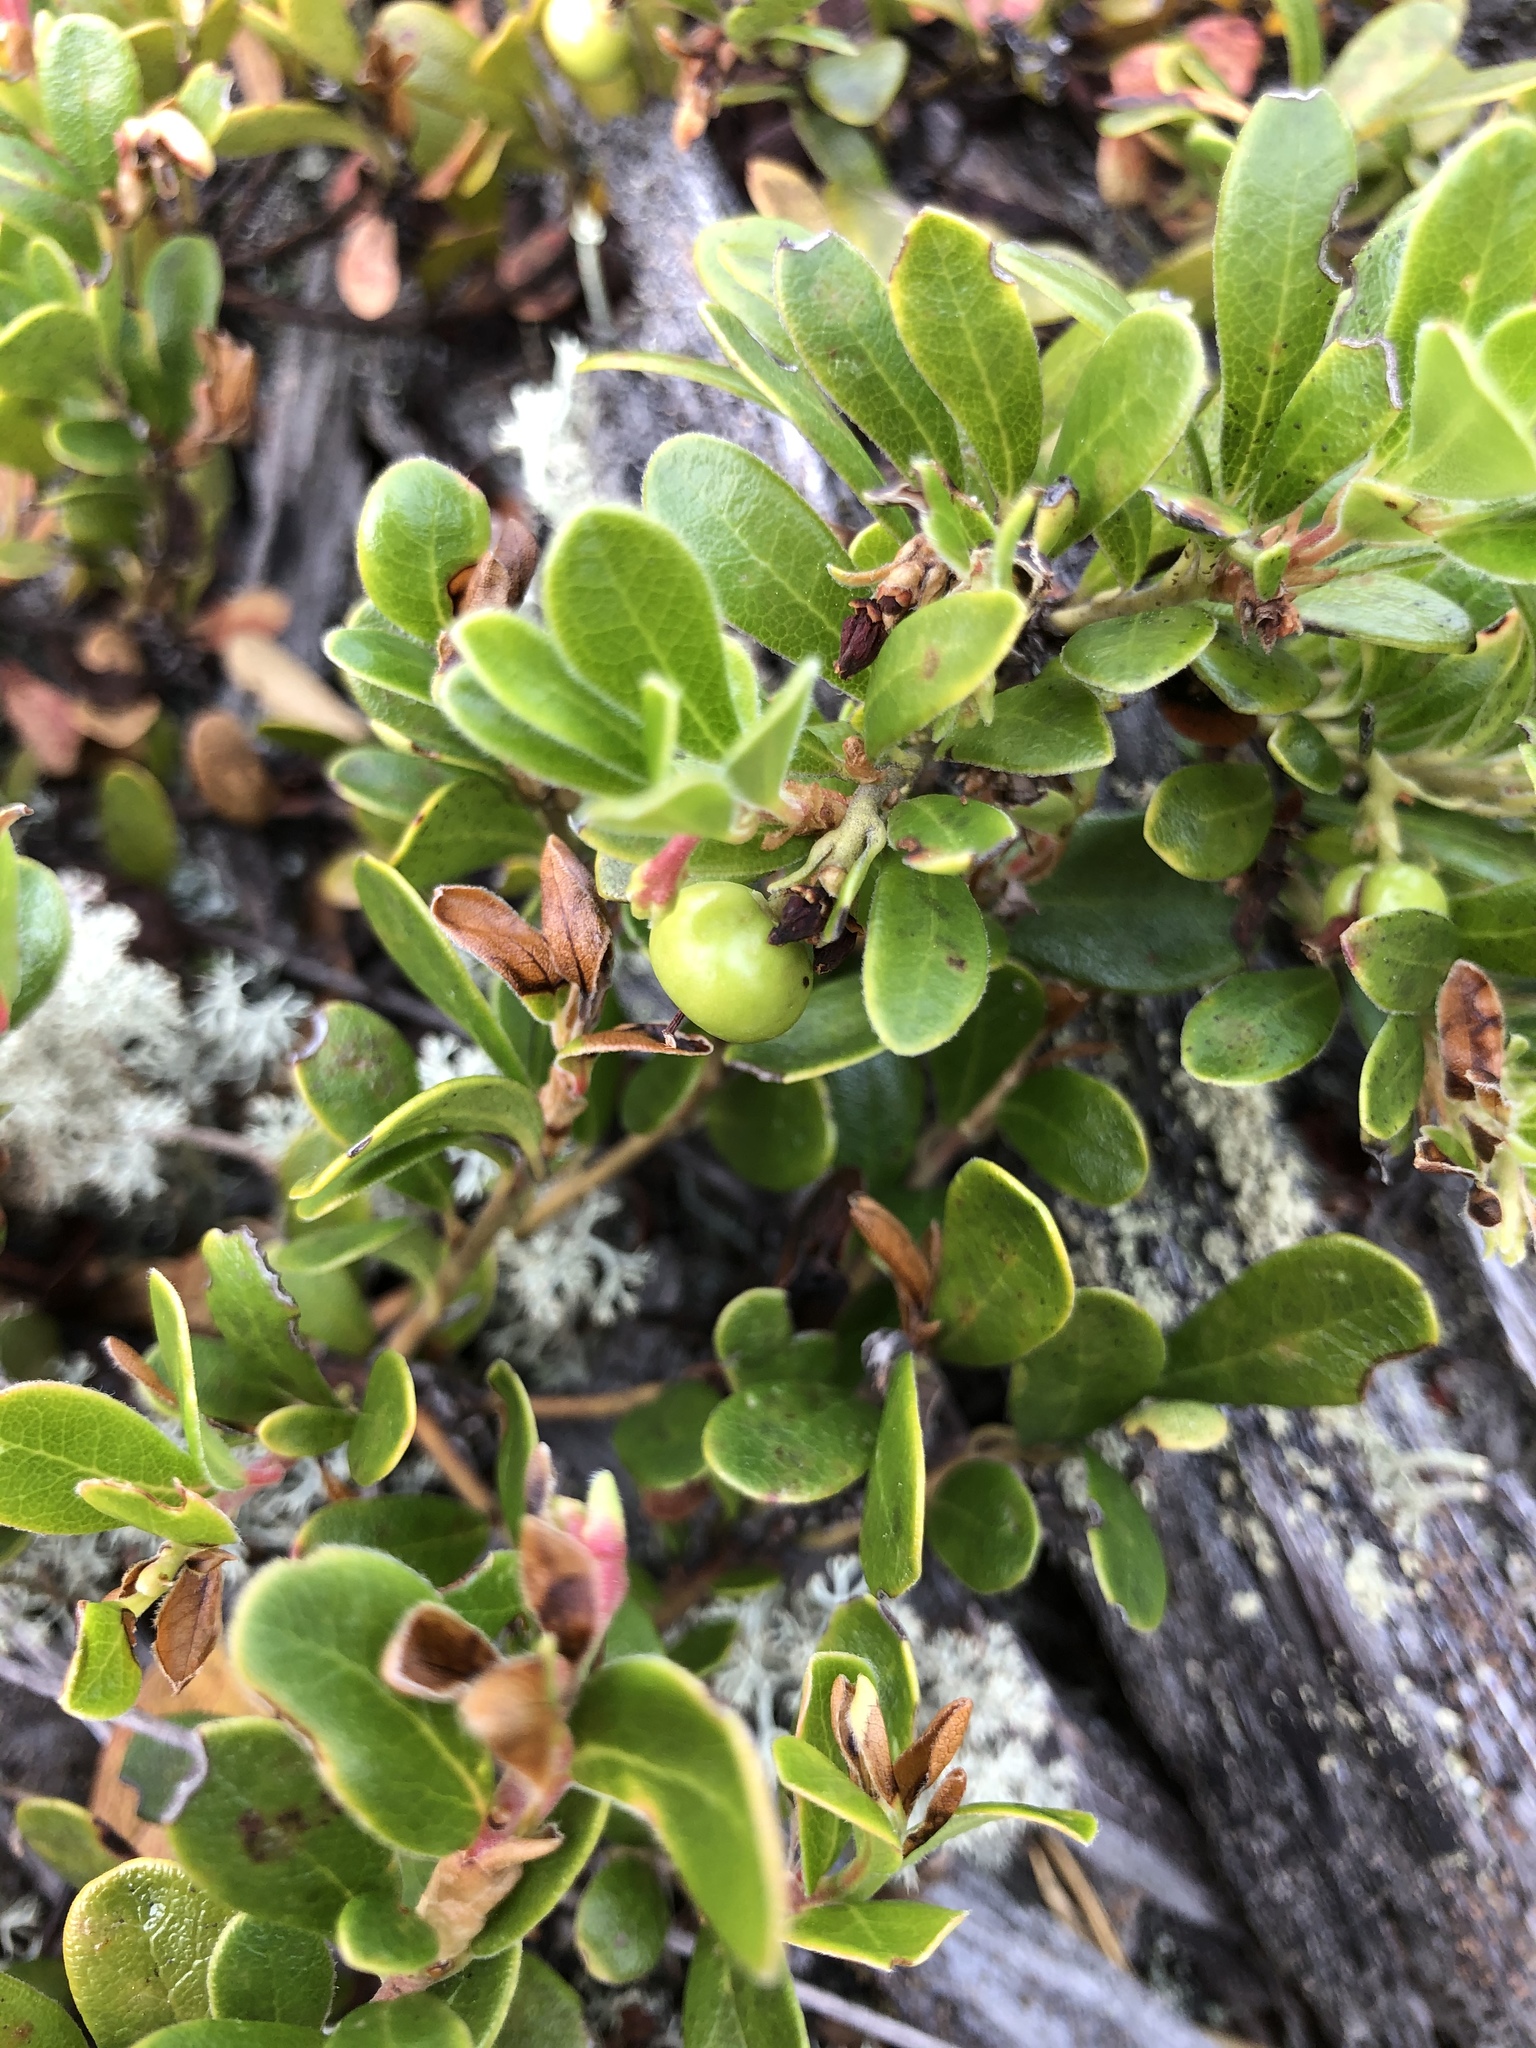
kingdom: Plantae
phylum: Tracheophyta
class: Magnoliopsida
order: Ericales
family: Ericaceae
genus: Arctostaphylos
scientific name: Arctostaphylos uva-ursi
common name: Bearberry
